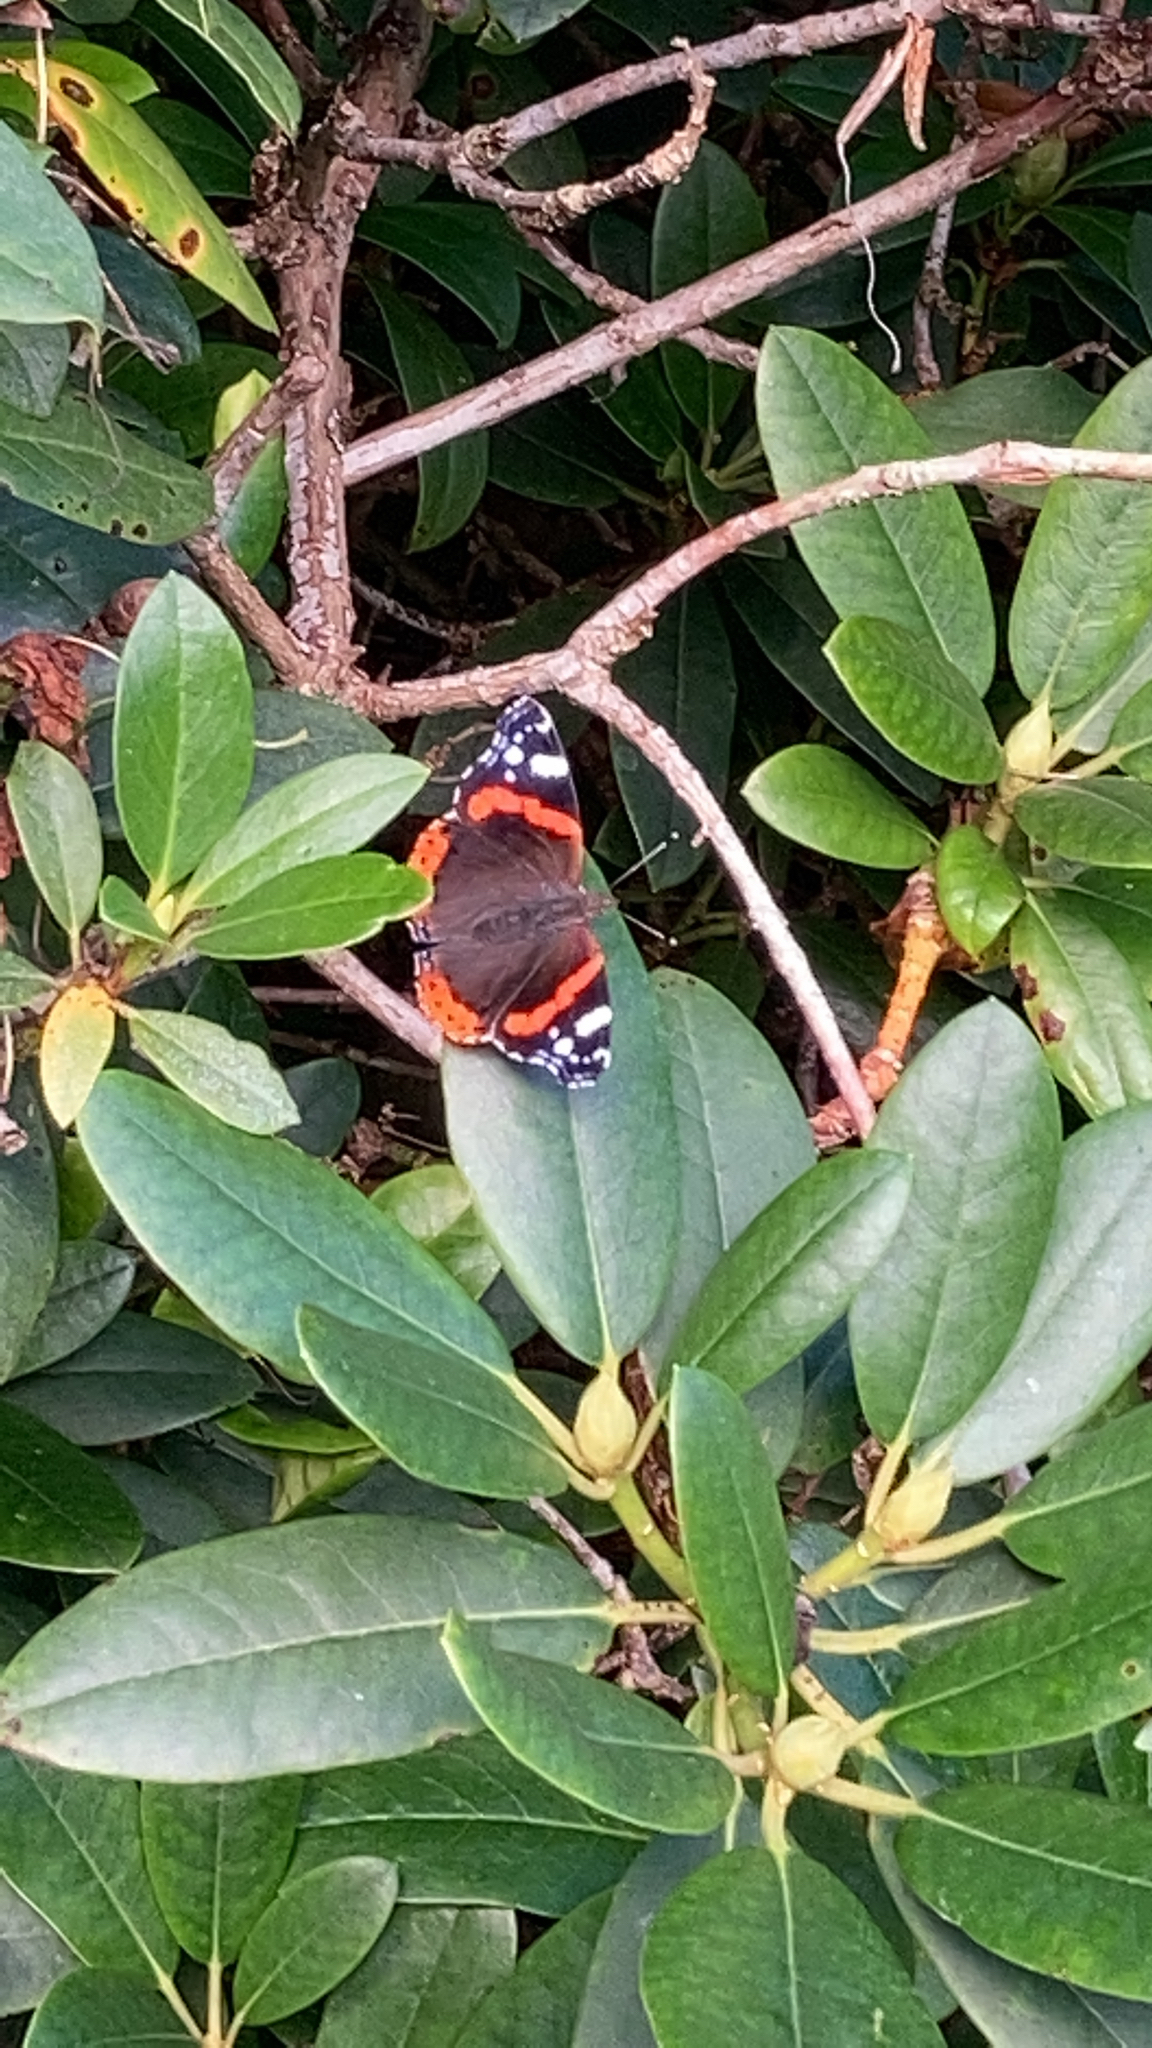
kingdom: Animalia
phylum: Arthropoda
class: Insecta
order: Lepidoptera
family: Nymphalidae
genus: Vanessa
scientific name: Vanessa atalanta
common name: Red admiral
